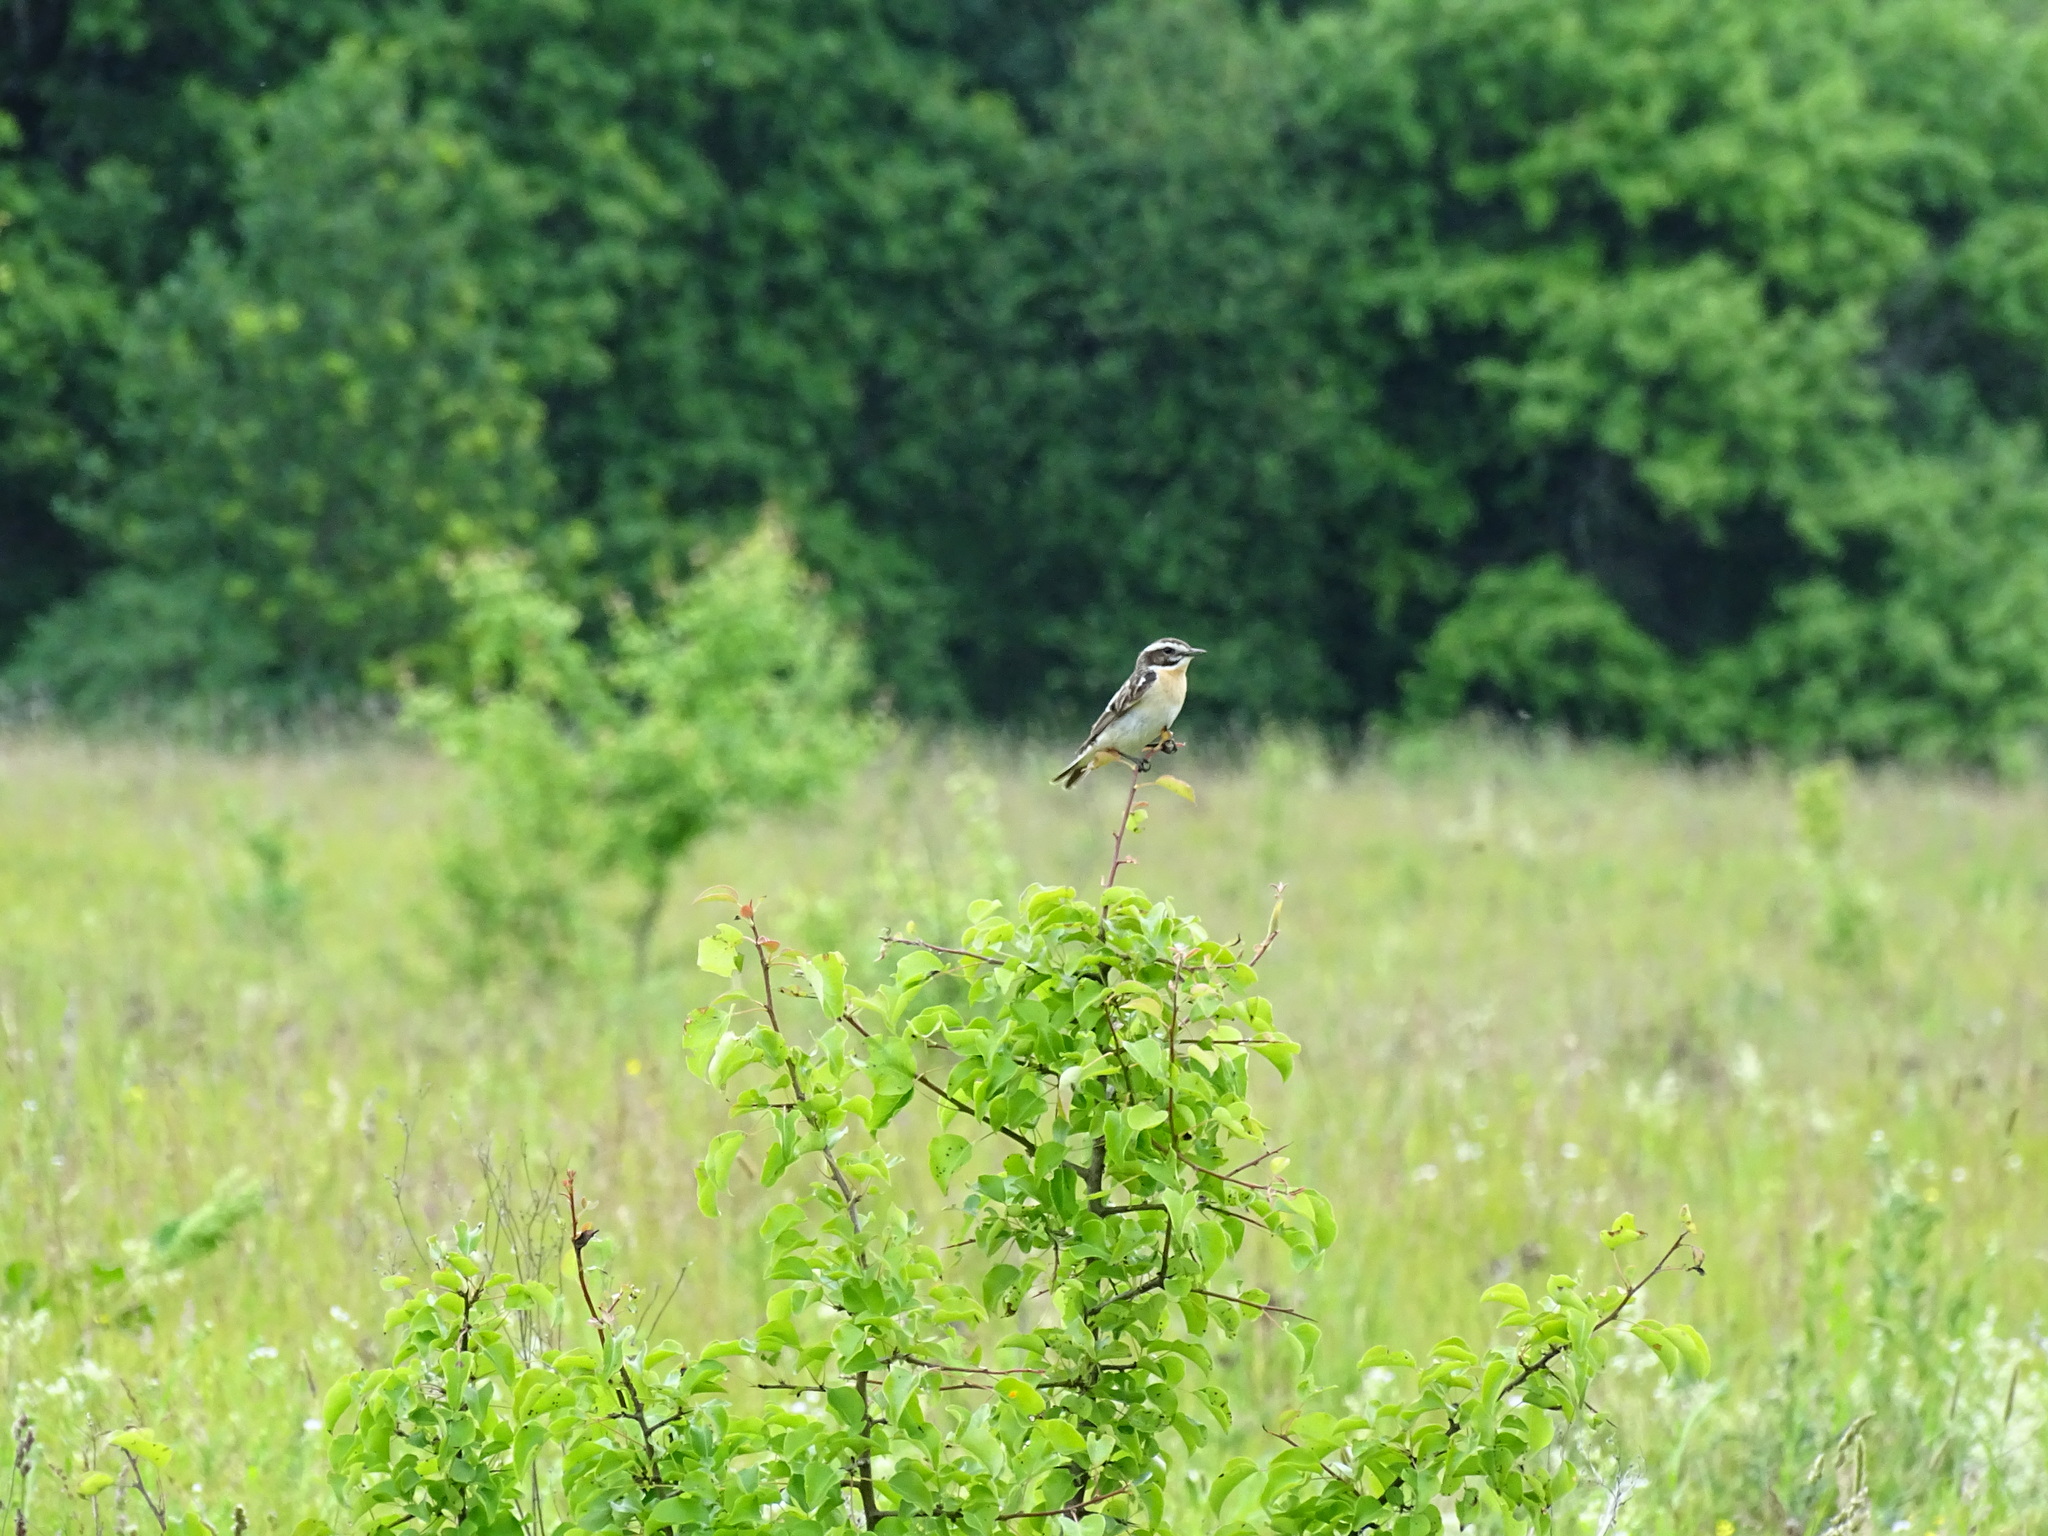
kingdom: Animalia
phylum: Chordata
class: Aves
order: Passeriformes
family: Muscicapidae
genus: Saxicola
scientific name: Saxicola rubetra
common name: Whinchat
